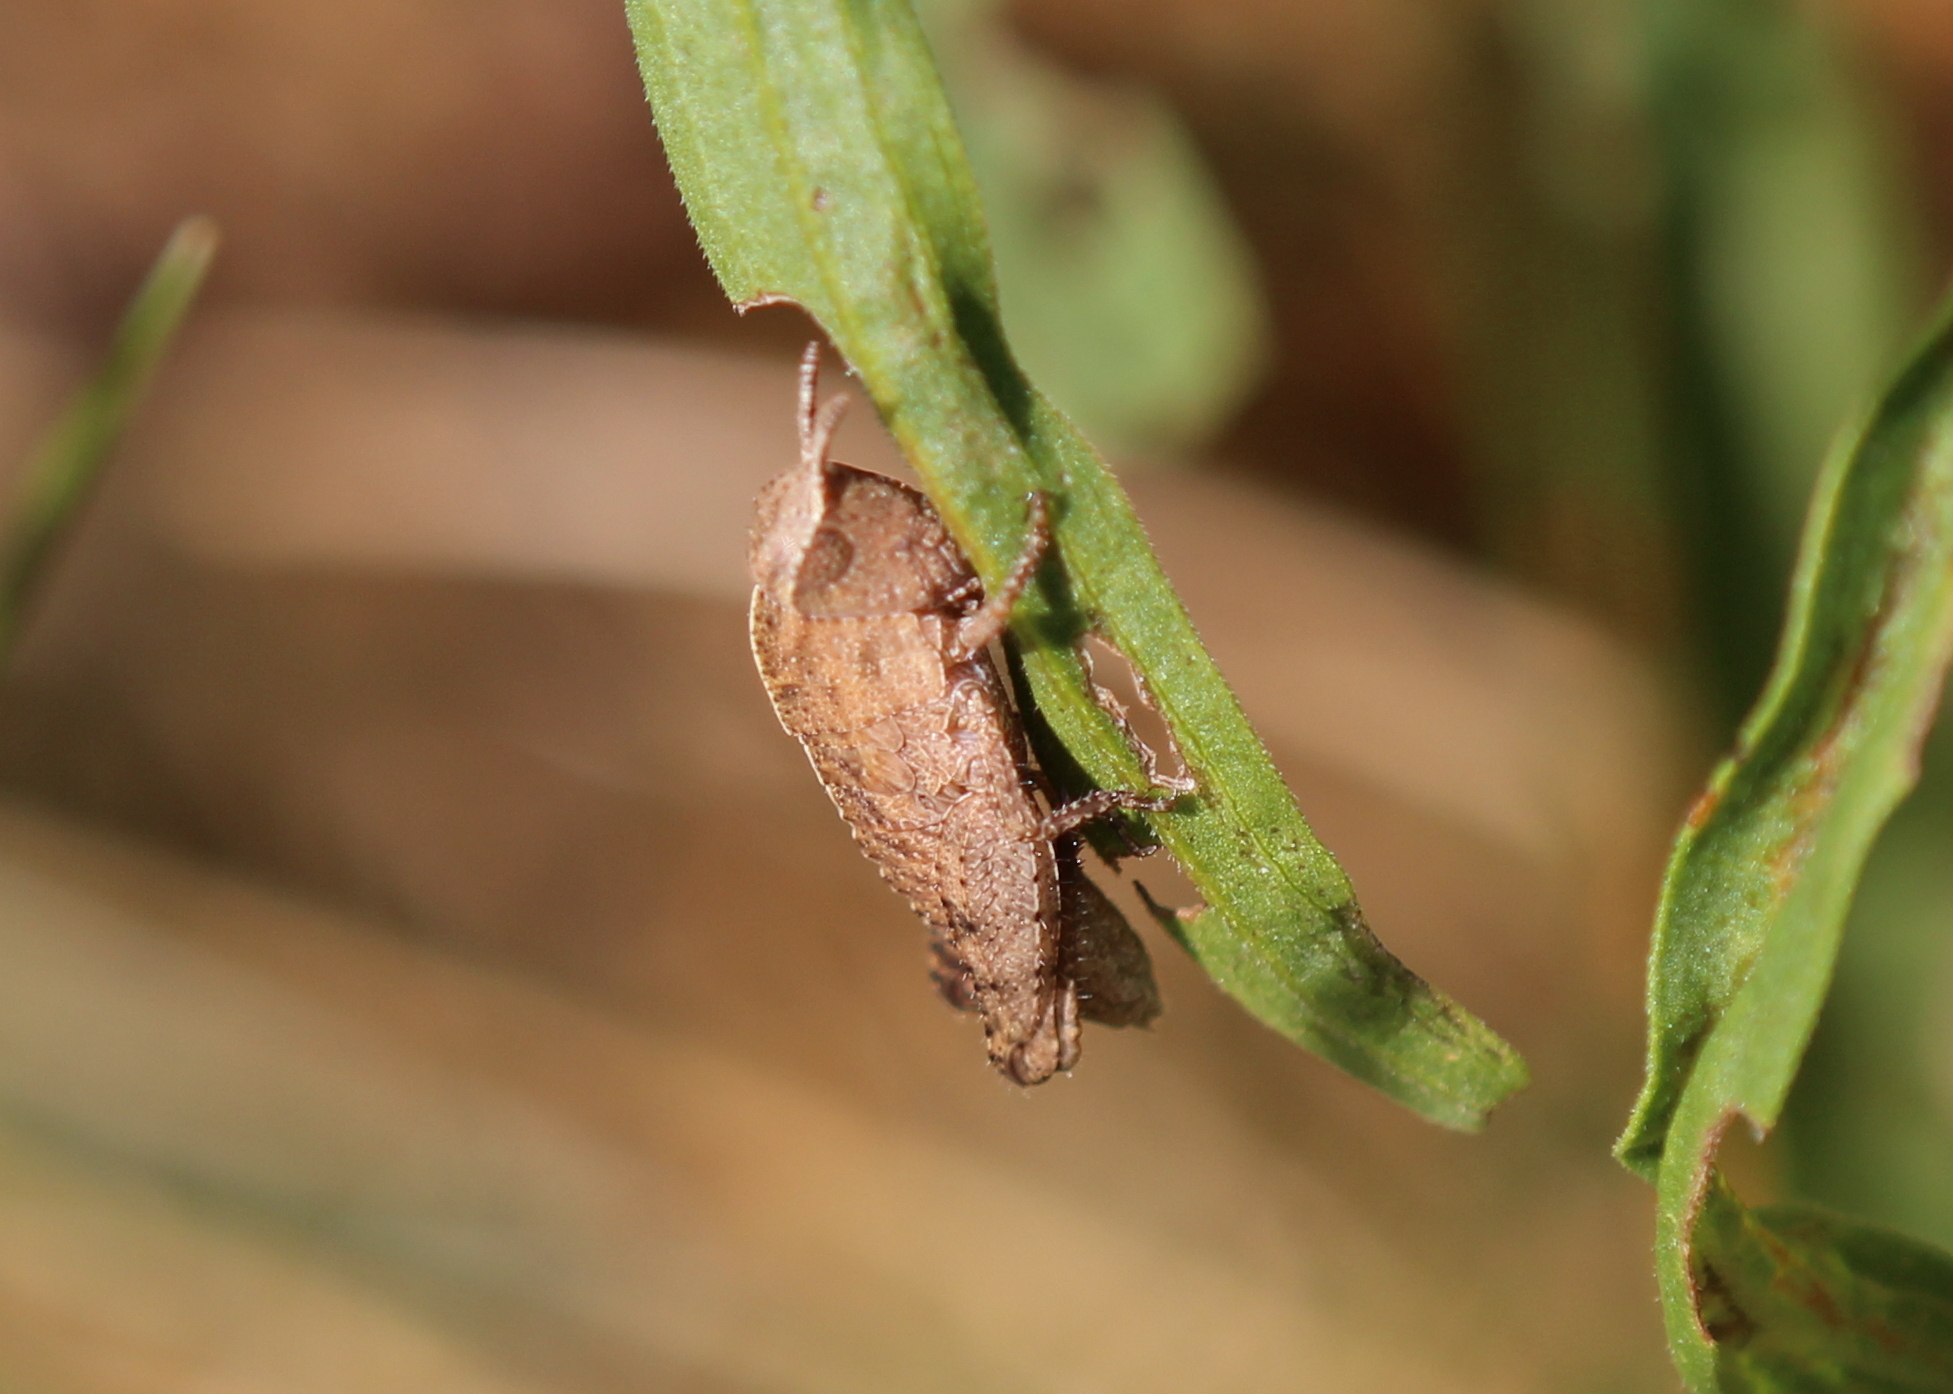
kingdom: Animalia
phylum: Arthropoda
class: Insecta
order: Orthoptera
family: Acrididae
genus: Chortophaga
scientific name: Chortophaga viridifasciata
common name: Green-striped grasshopper
